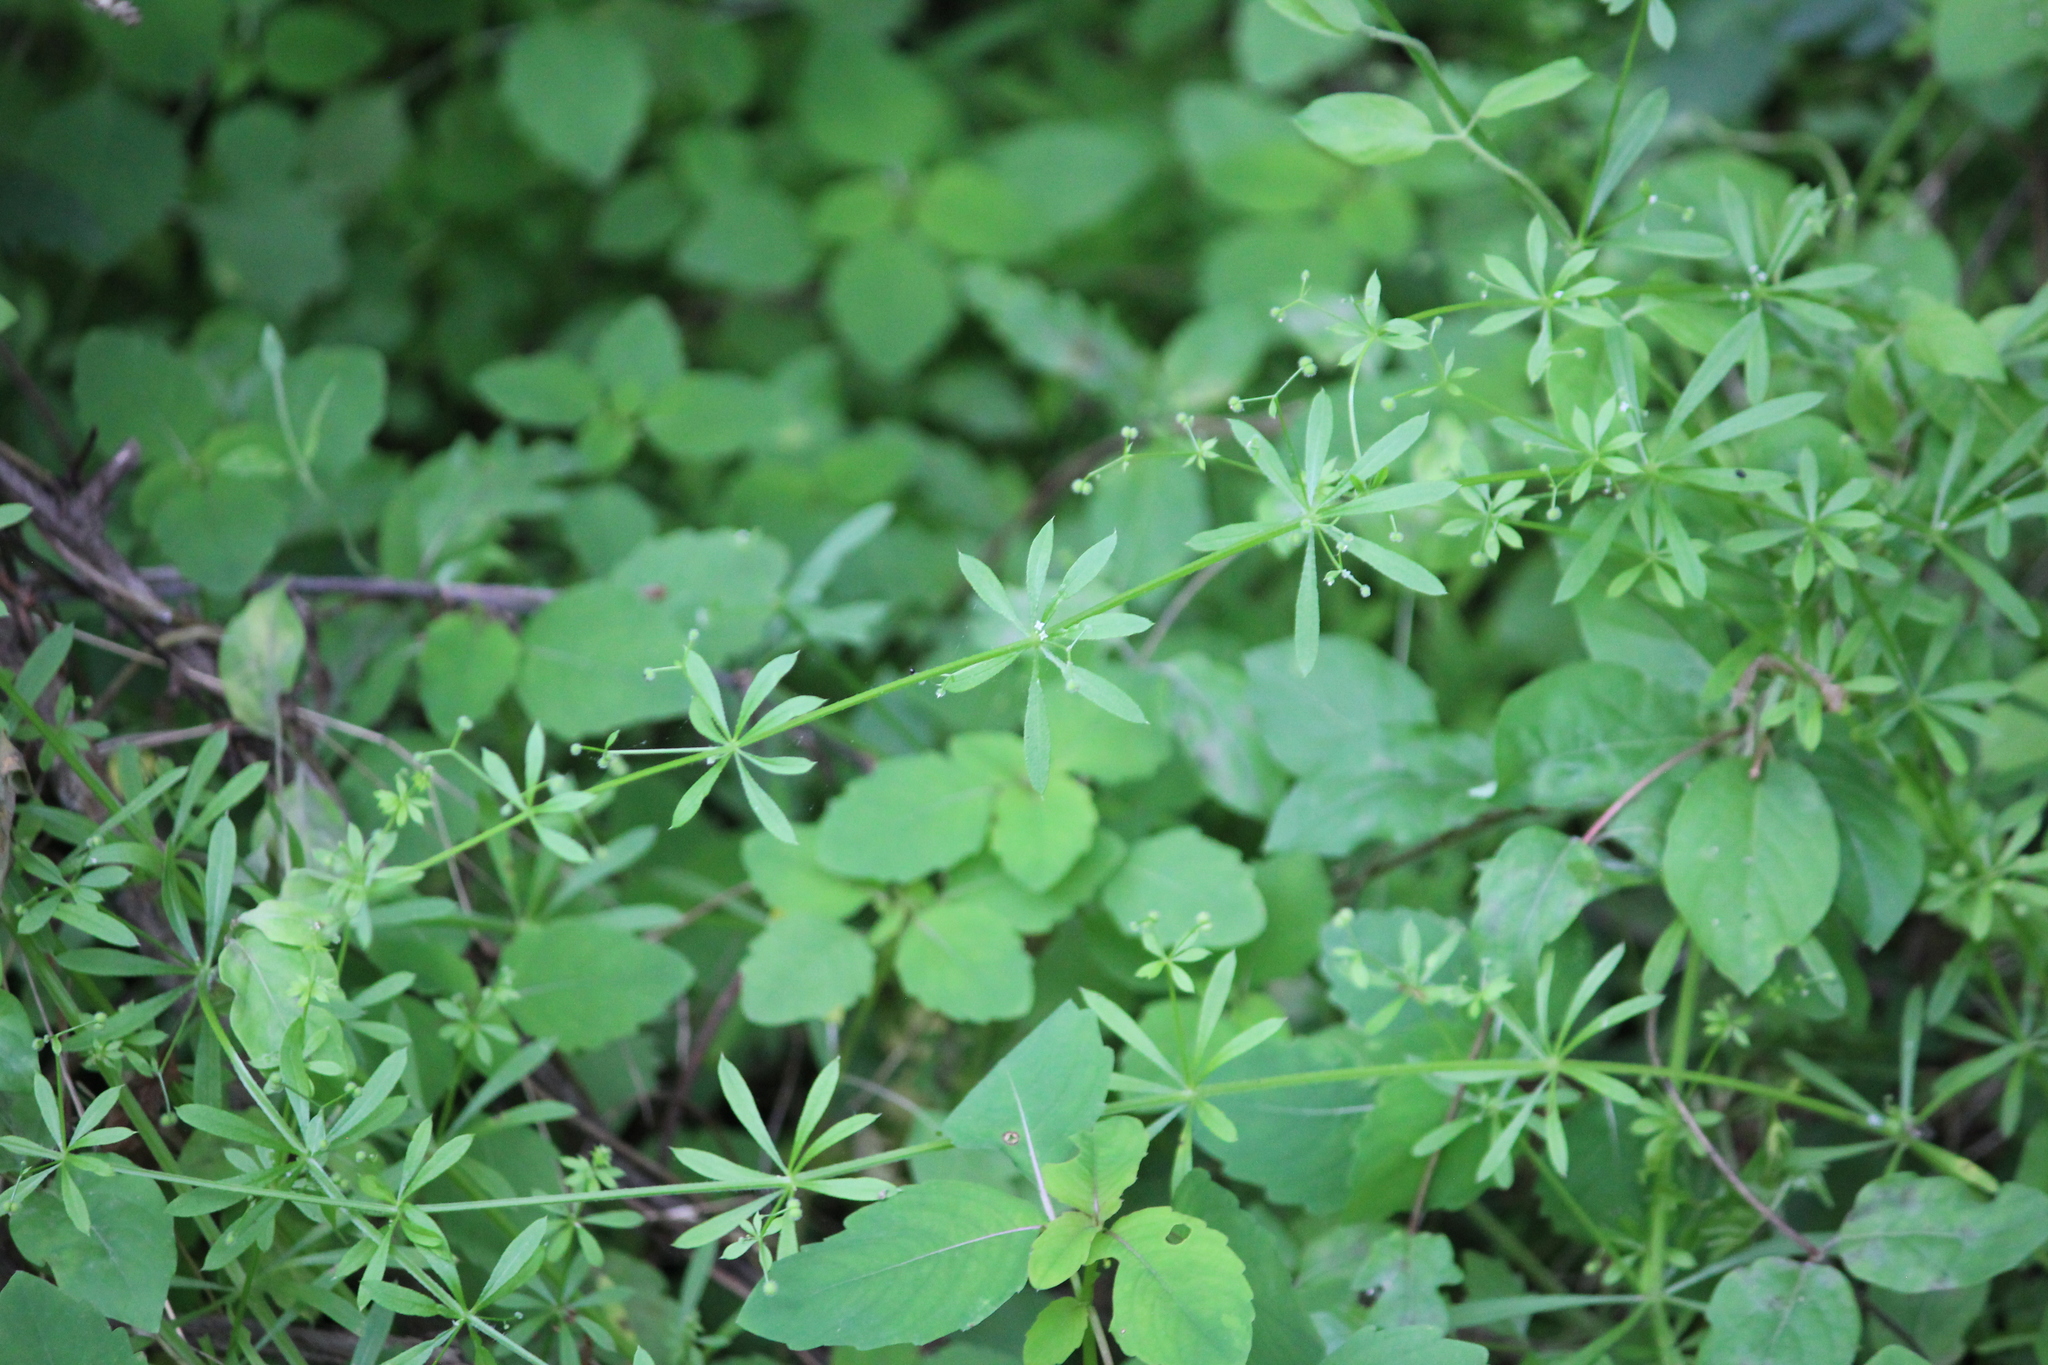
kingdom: Plantae
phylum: Tracheophyta
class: Magnoliopsida
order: Gentianales
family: Rubiaceae
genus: Galium
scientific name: Galium aparine
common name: Cleavers
